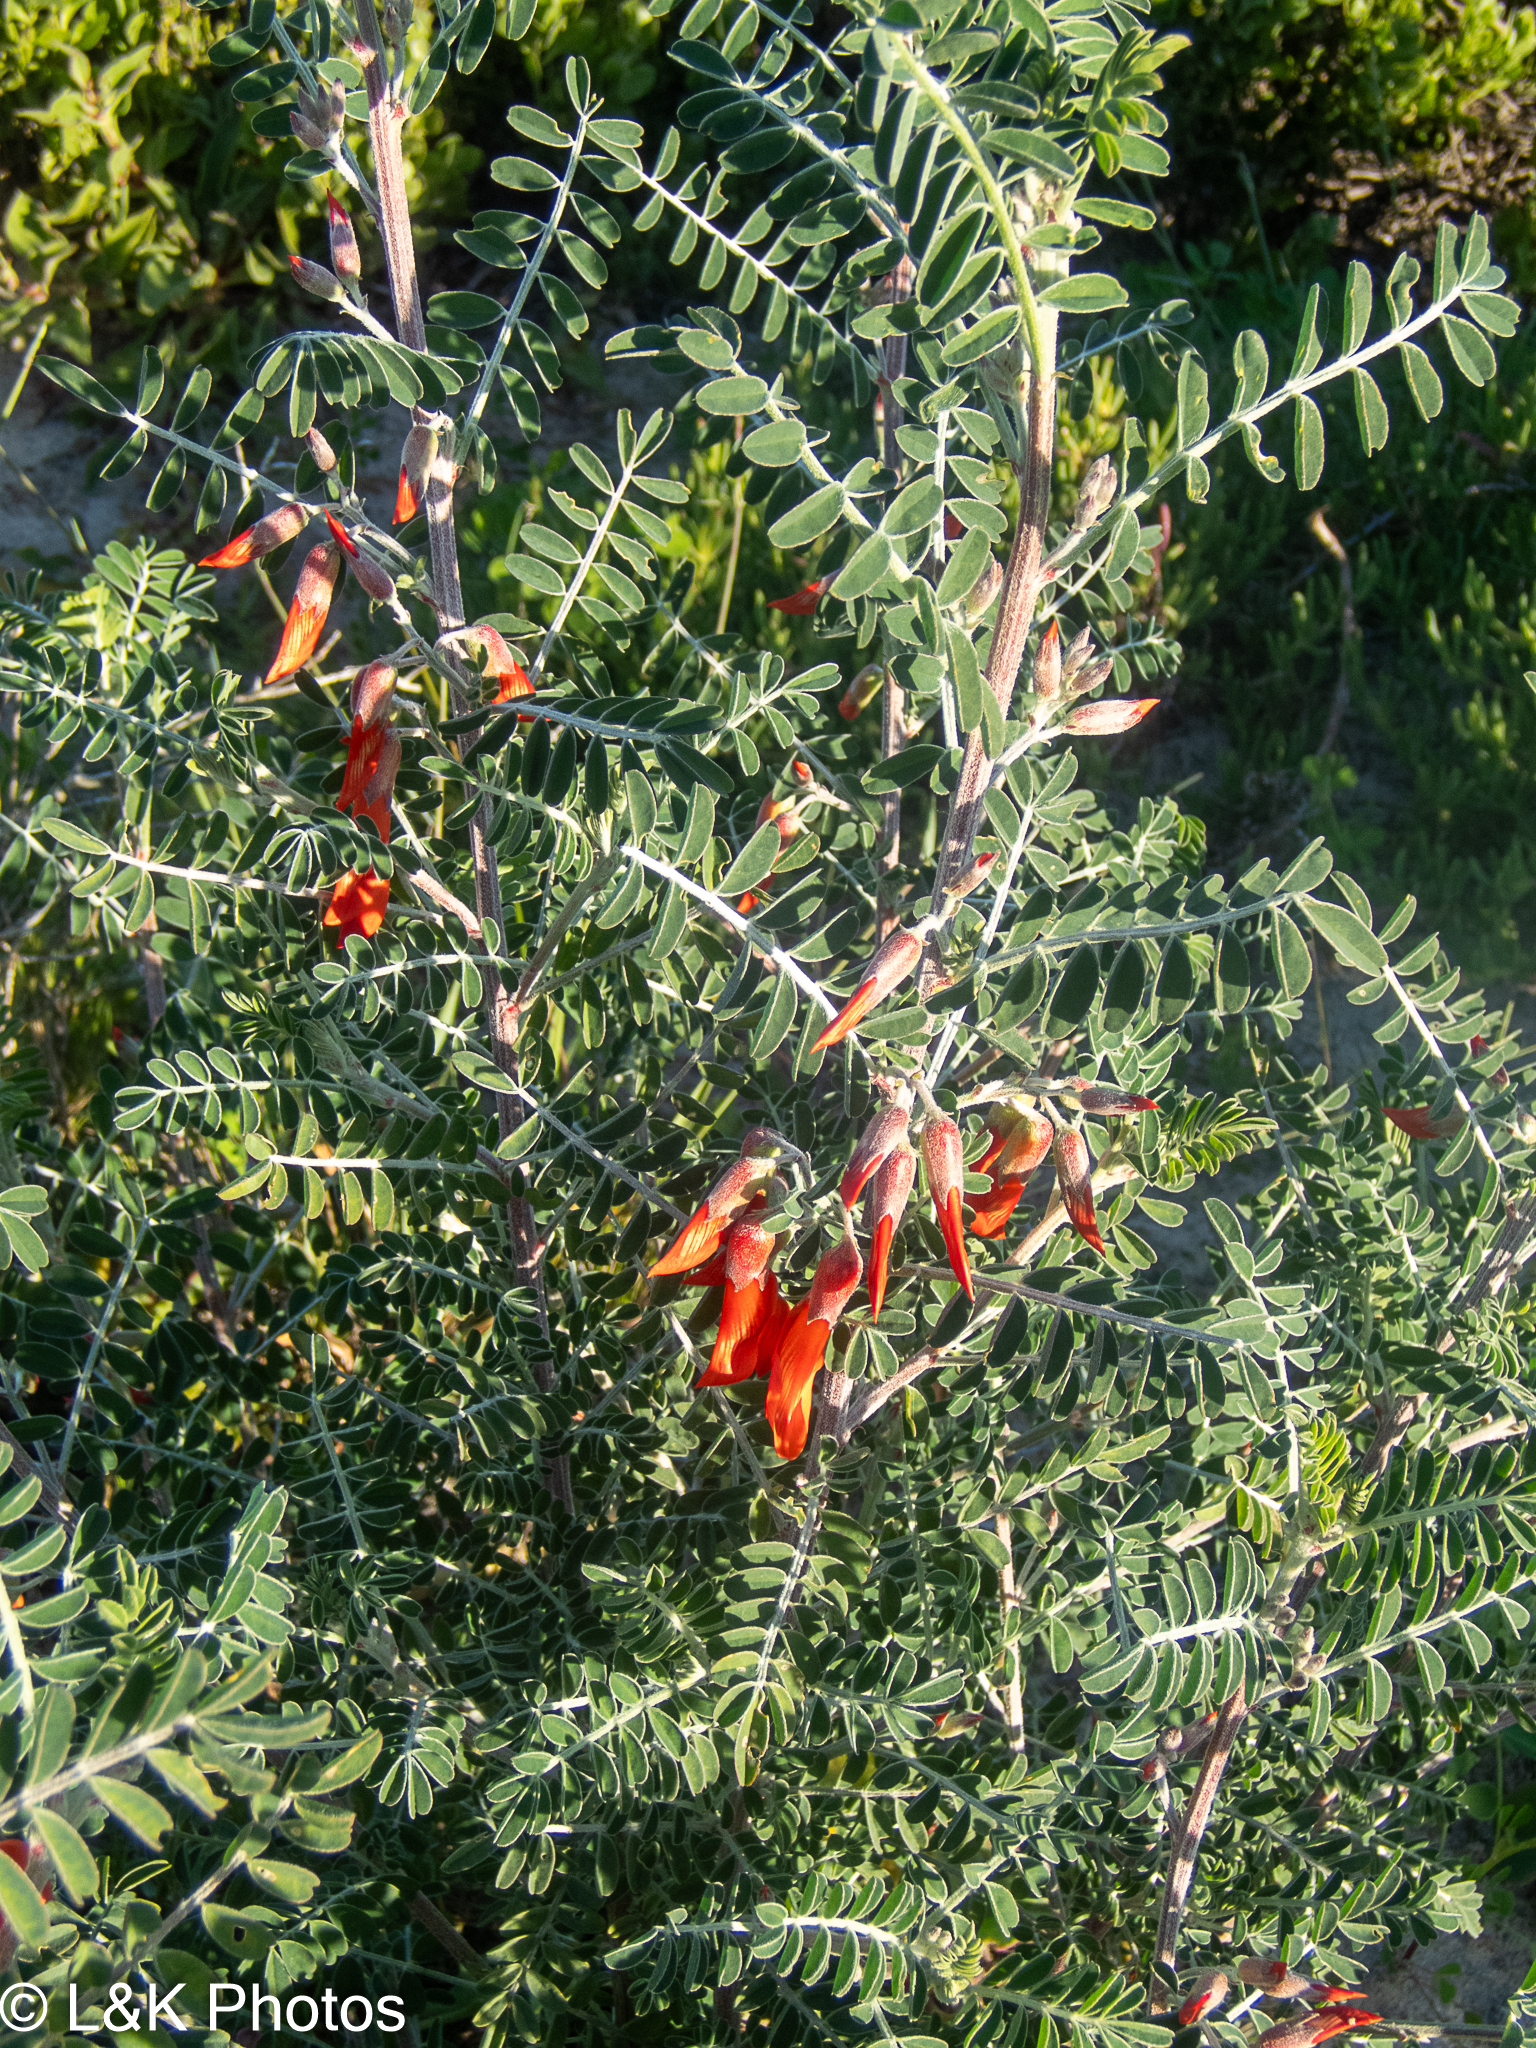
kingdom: Plantae
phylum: Tracheophyta
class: Magnoliopsida
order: Fabales
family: Fabaceae
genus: Lessertia
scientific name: Lessertia frutescens
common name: Balloon-pea
